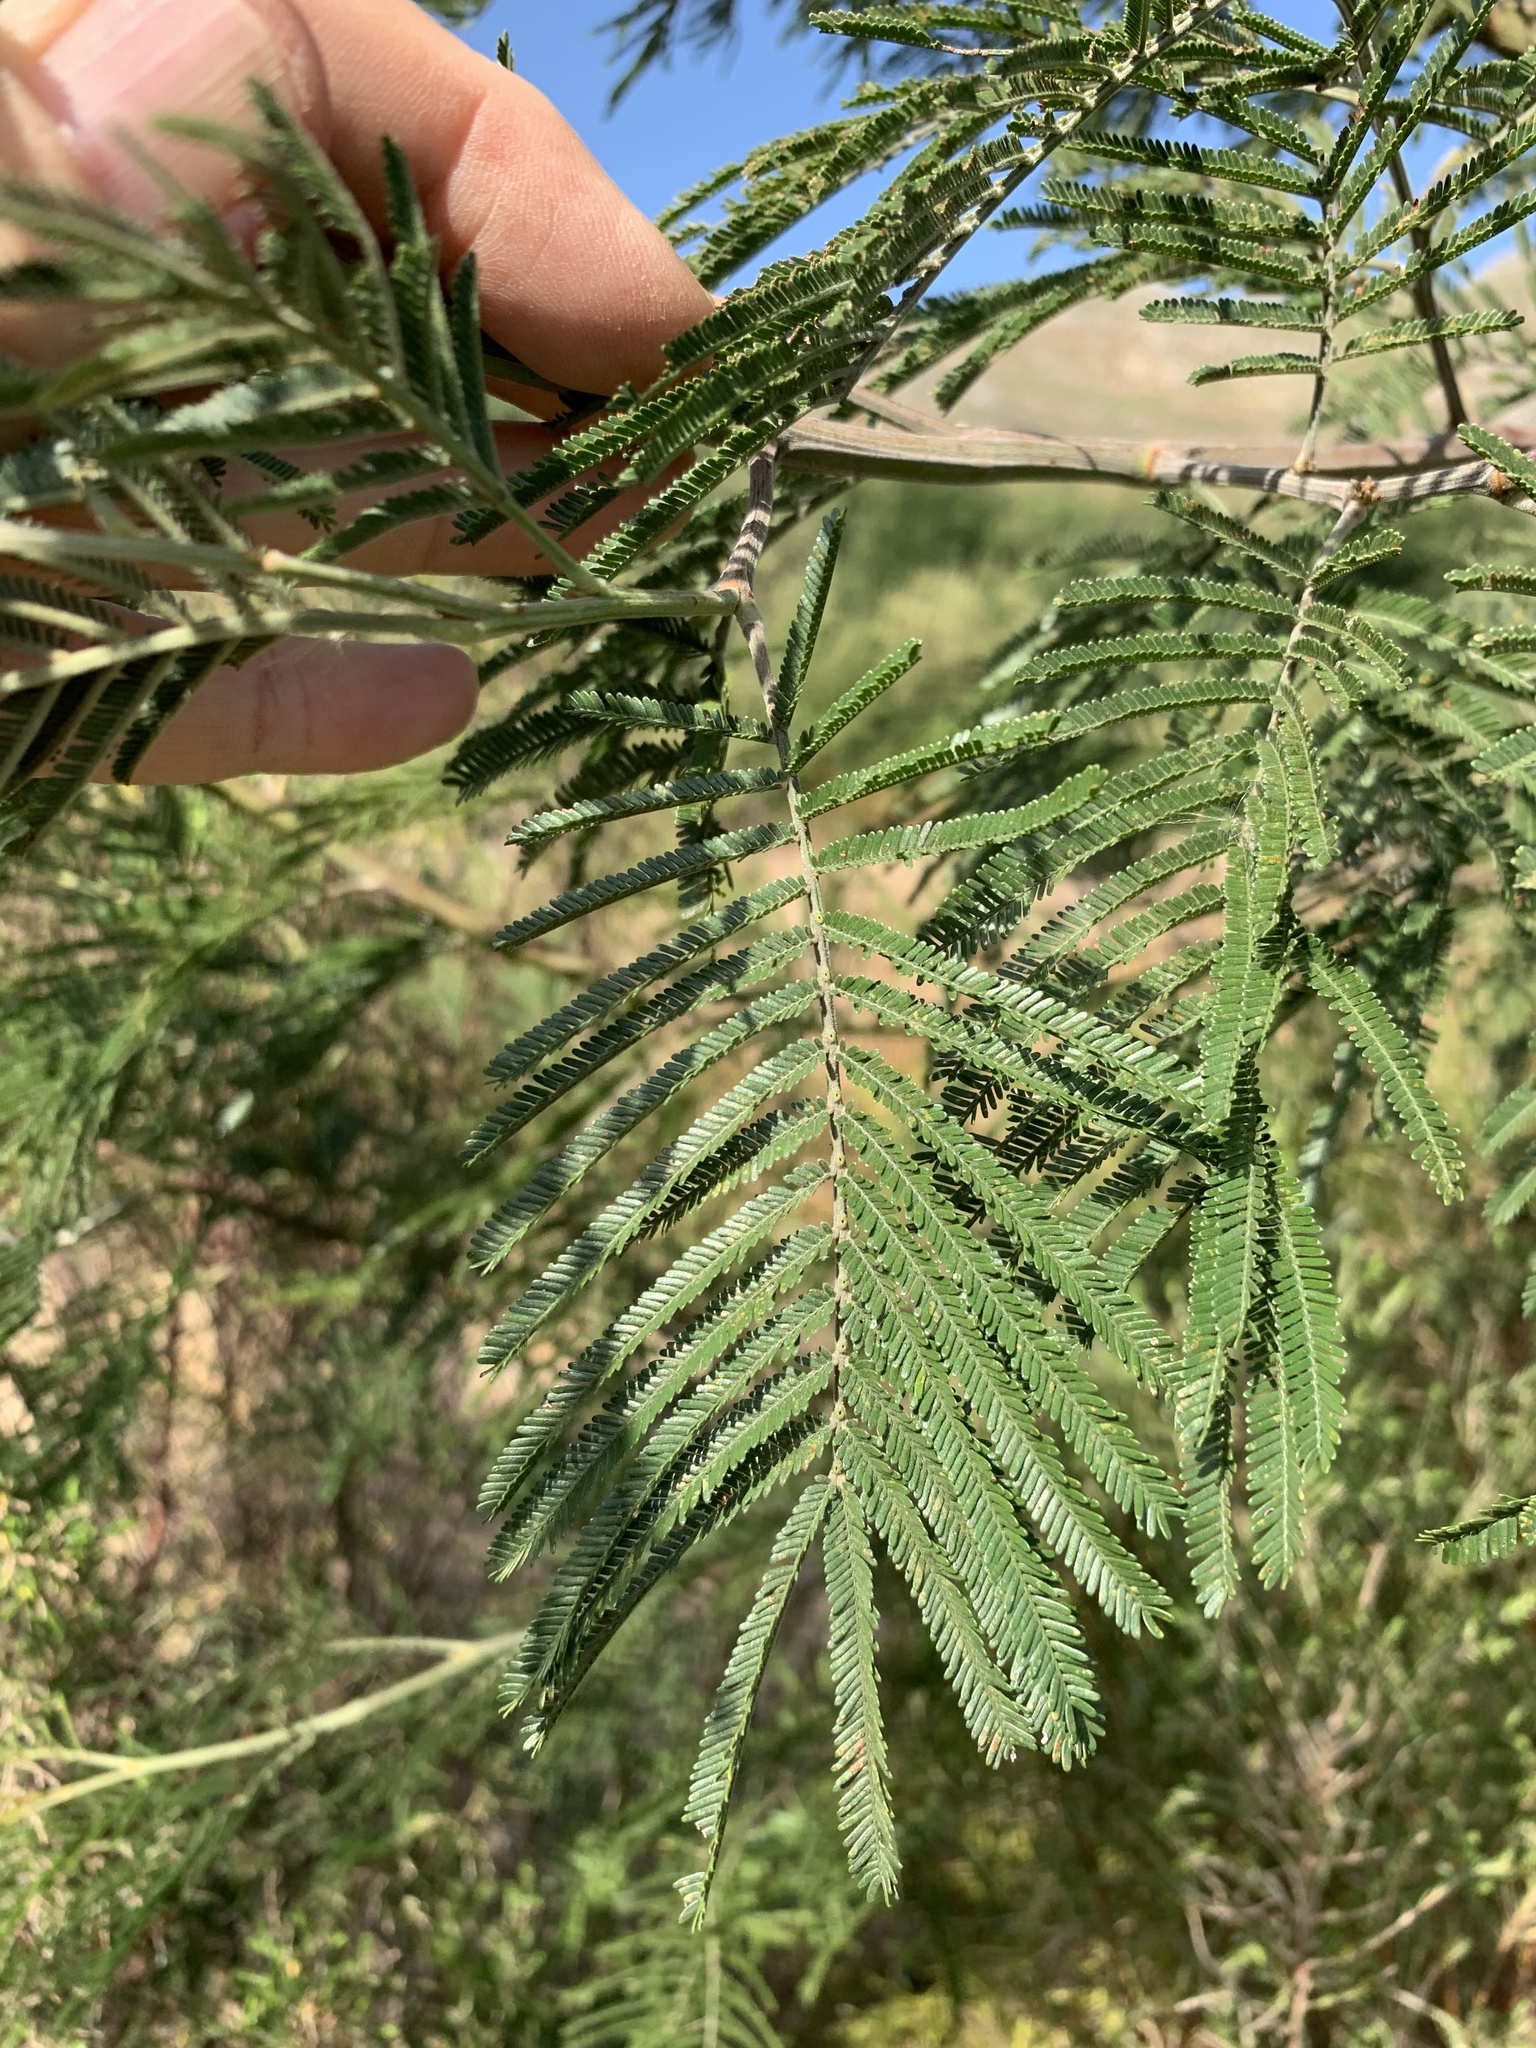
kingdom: Plantae
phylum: Tracheophyta
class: Magnoliopsida
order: Fabales
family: Fabaceae
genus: Acacia
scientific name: Acacia mearnsii
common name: Black wattle
